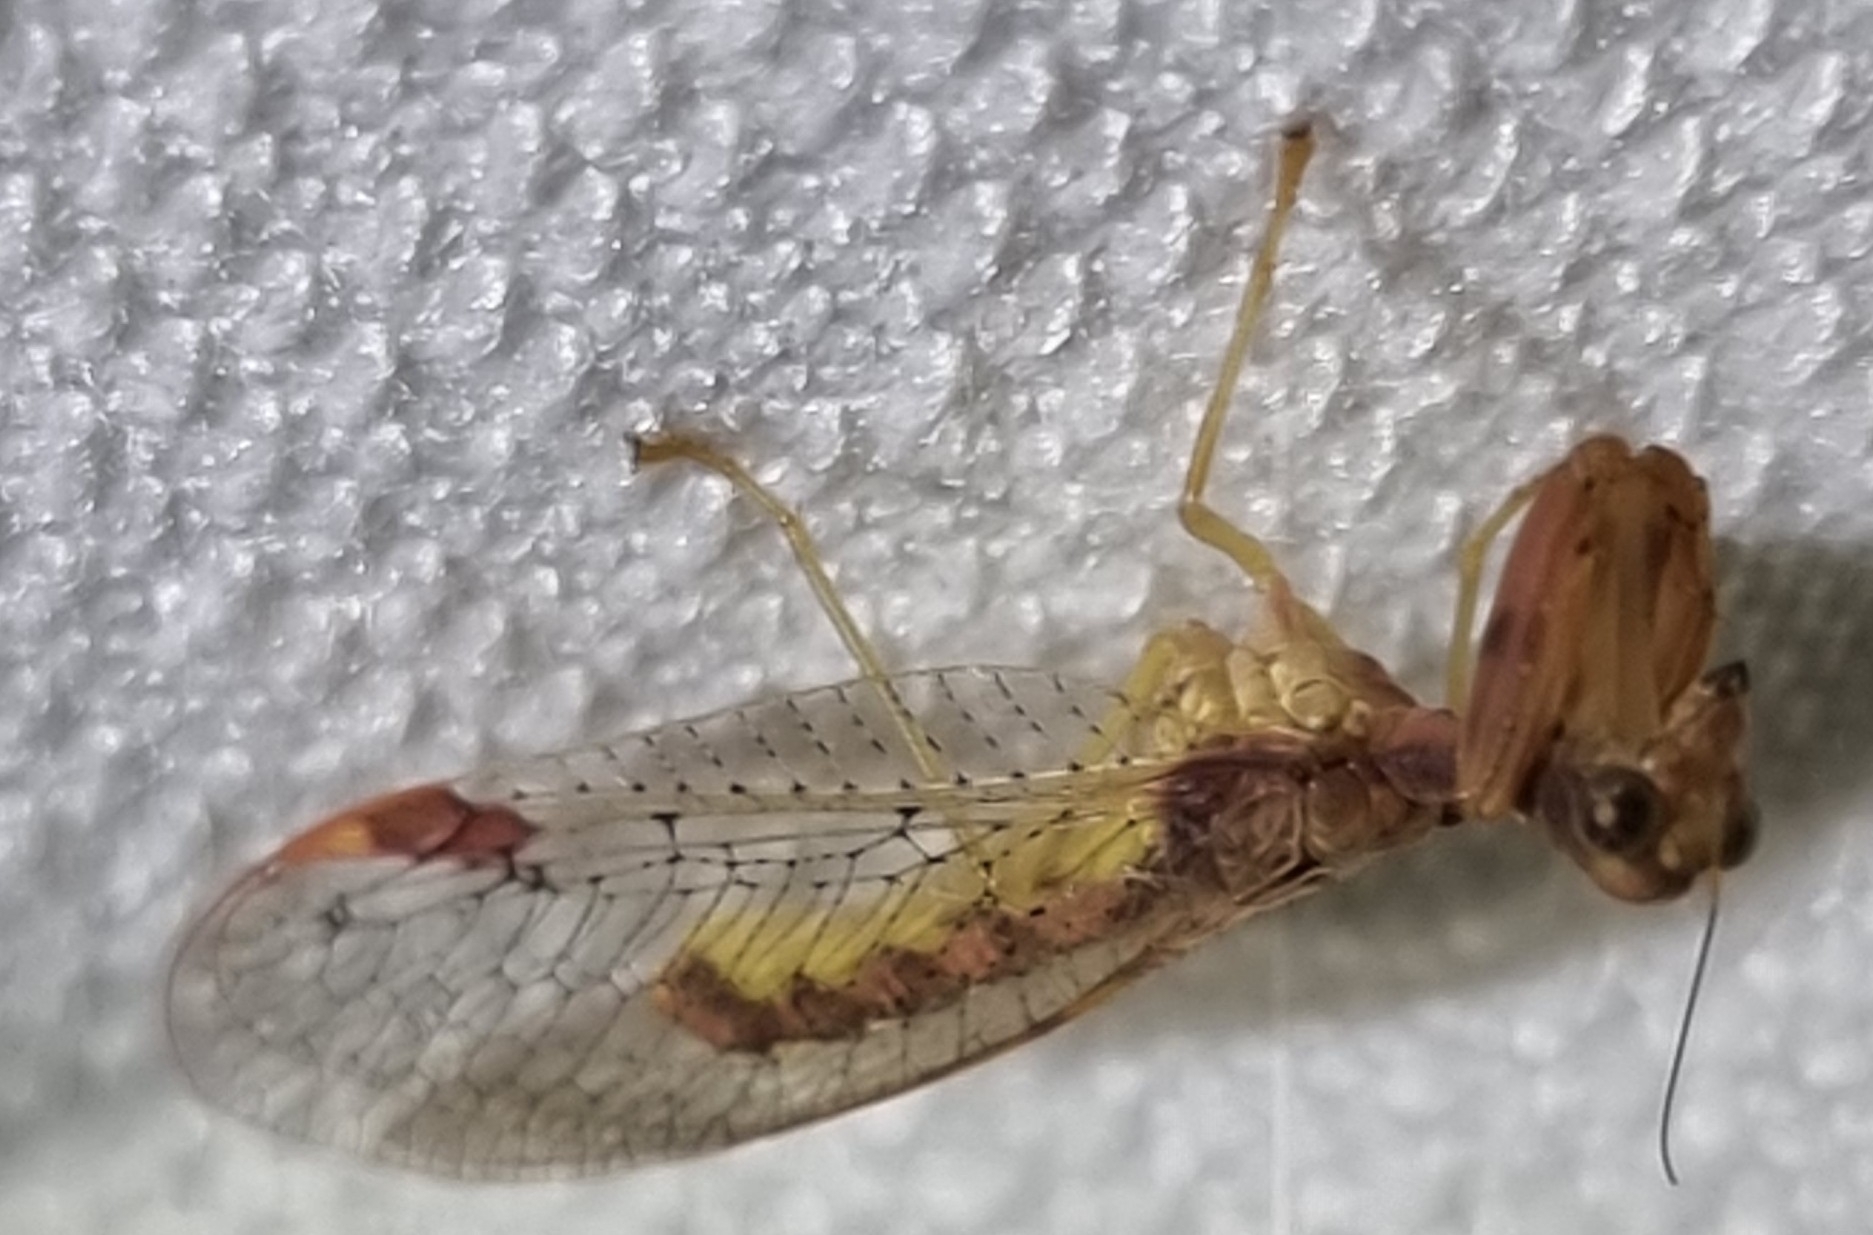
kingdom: Animalia
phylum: Arthropoda
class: Insecta
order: Neuroptera
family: Mantispidae
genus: Ditaxis
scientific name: Ditaxis biseriata
